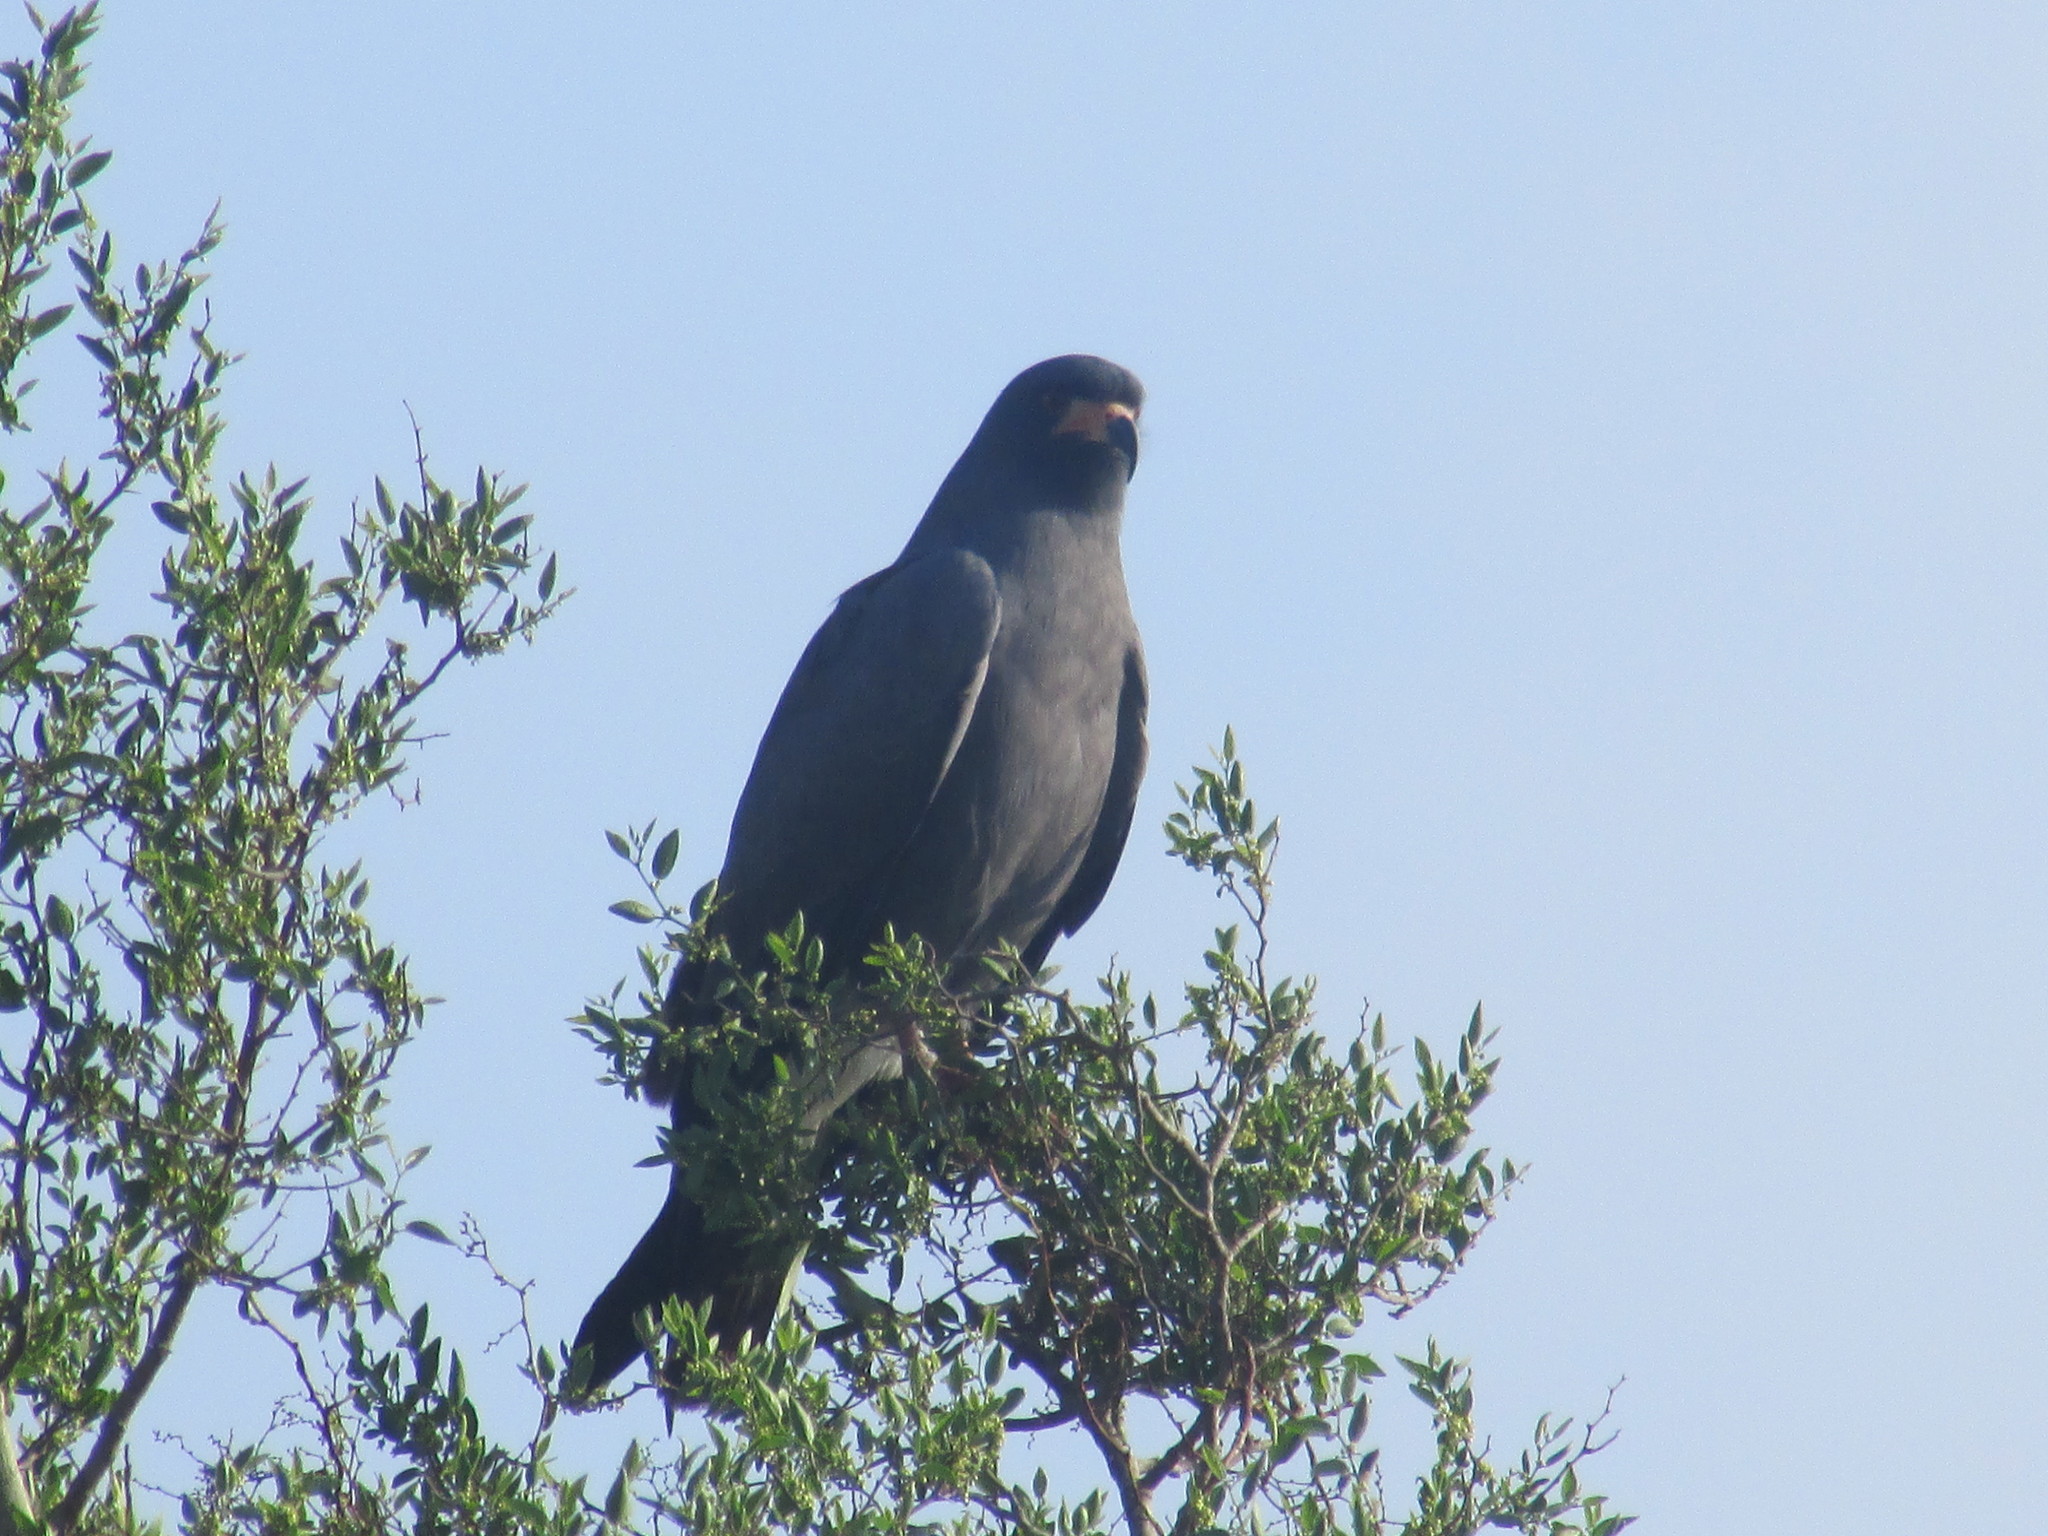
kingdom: Animalia
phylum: Chordata
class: Aves
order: Accipitriformes
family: Accipitridae
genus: Rostrhamus
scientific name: Rostrhamus sociabilis
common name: Snail kite
